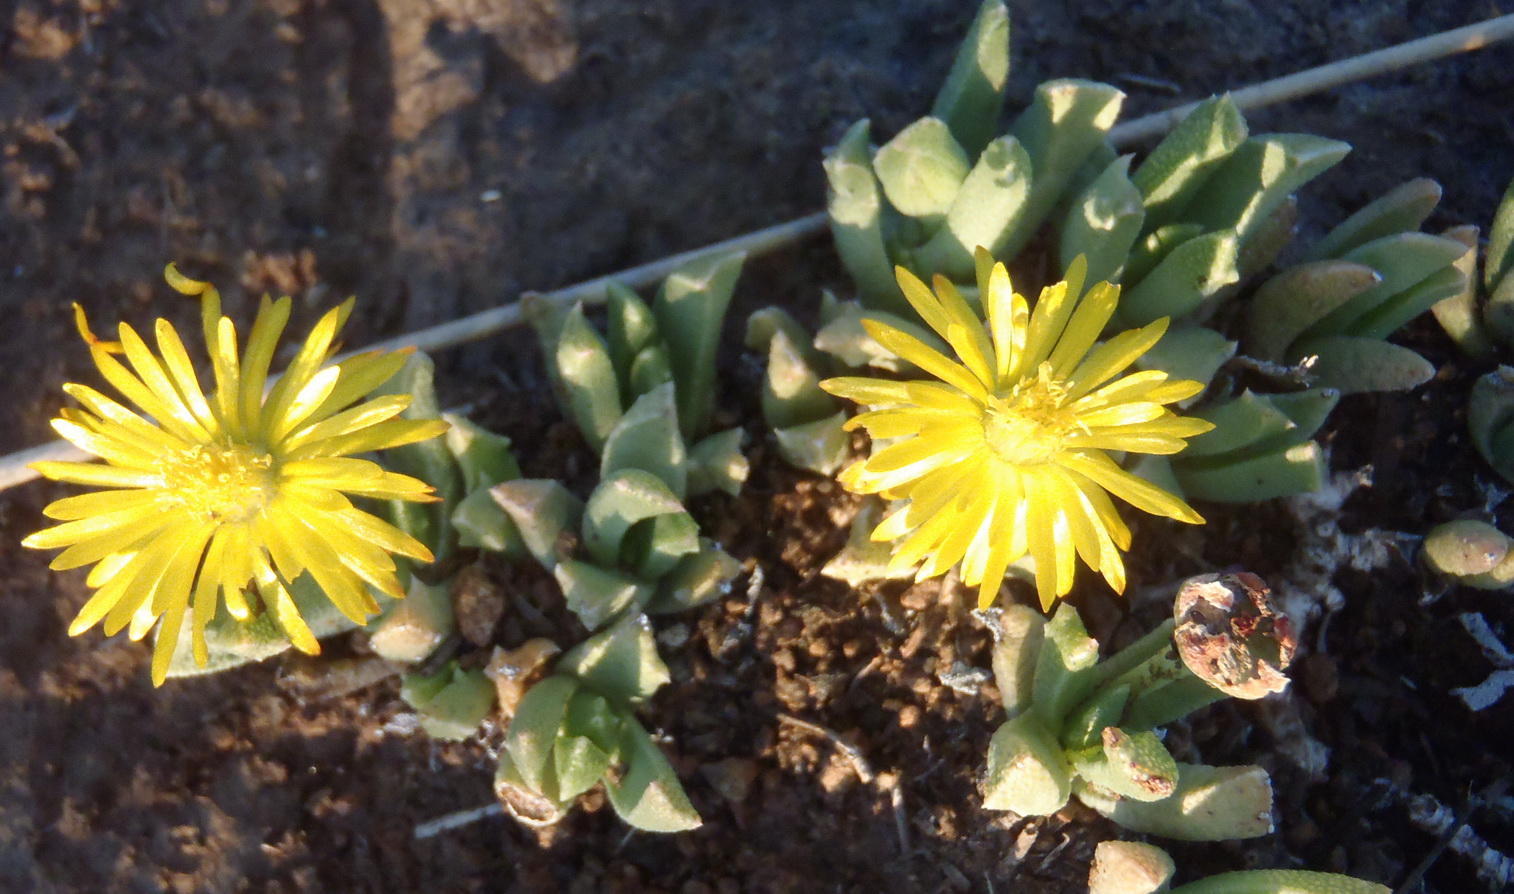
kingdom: Plantae
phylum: Tracheophyta
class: Magnoliopsida
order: Caryophyllales
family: Aizoaceae
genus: Dracophilus
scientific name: Dracophilus Chasmatophyllum musculinum
